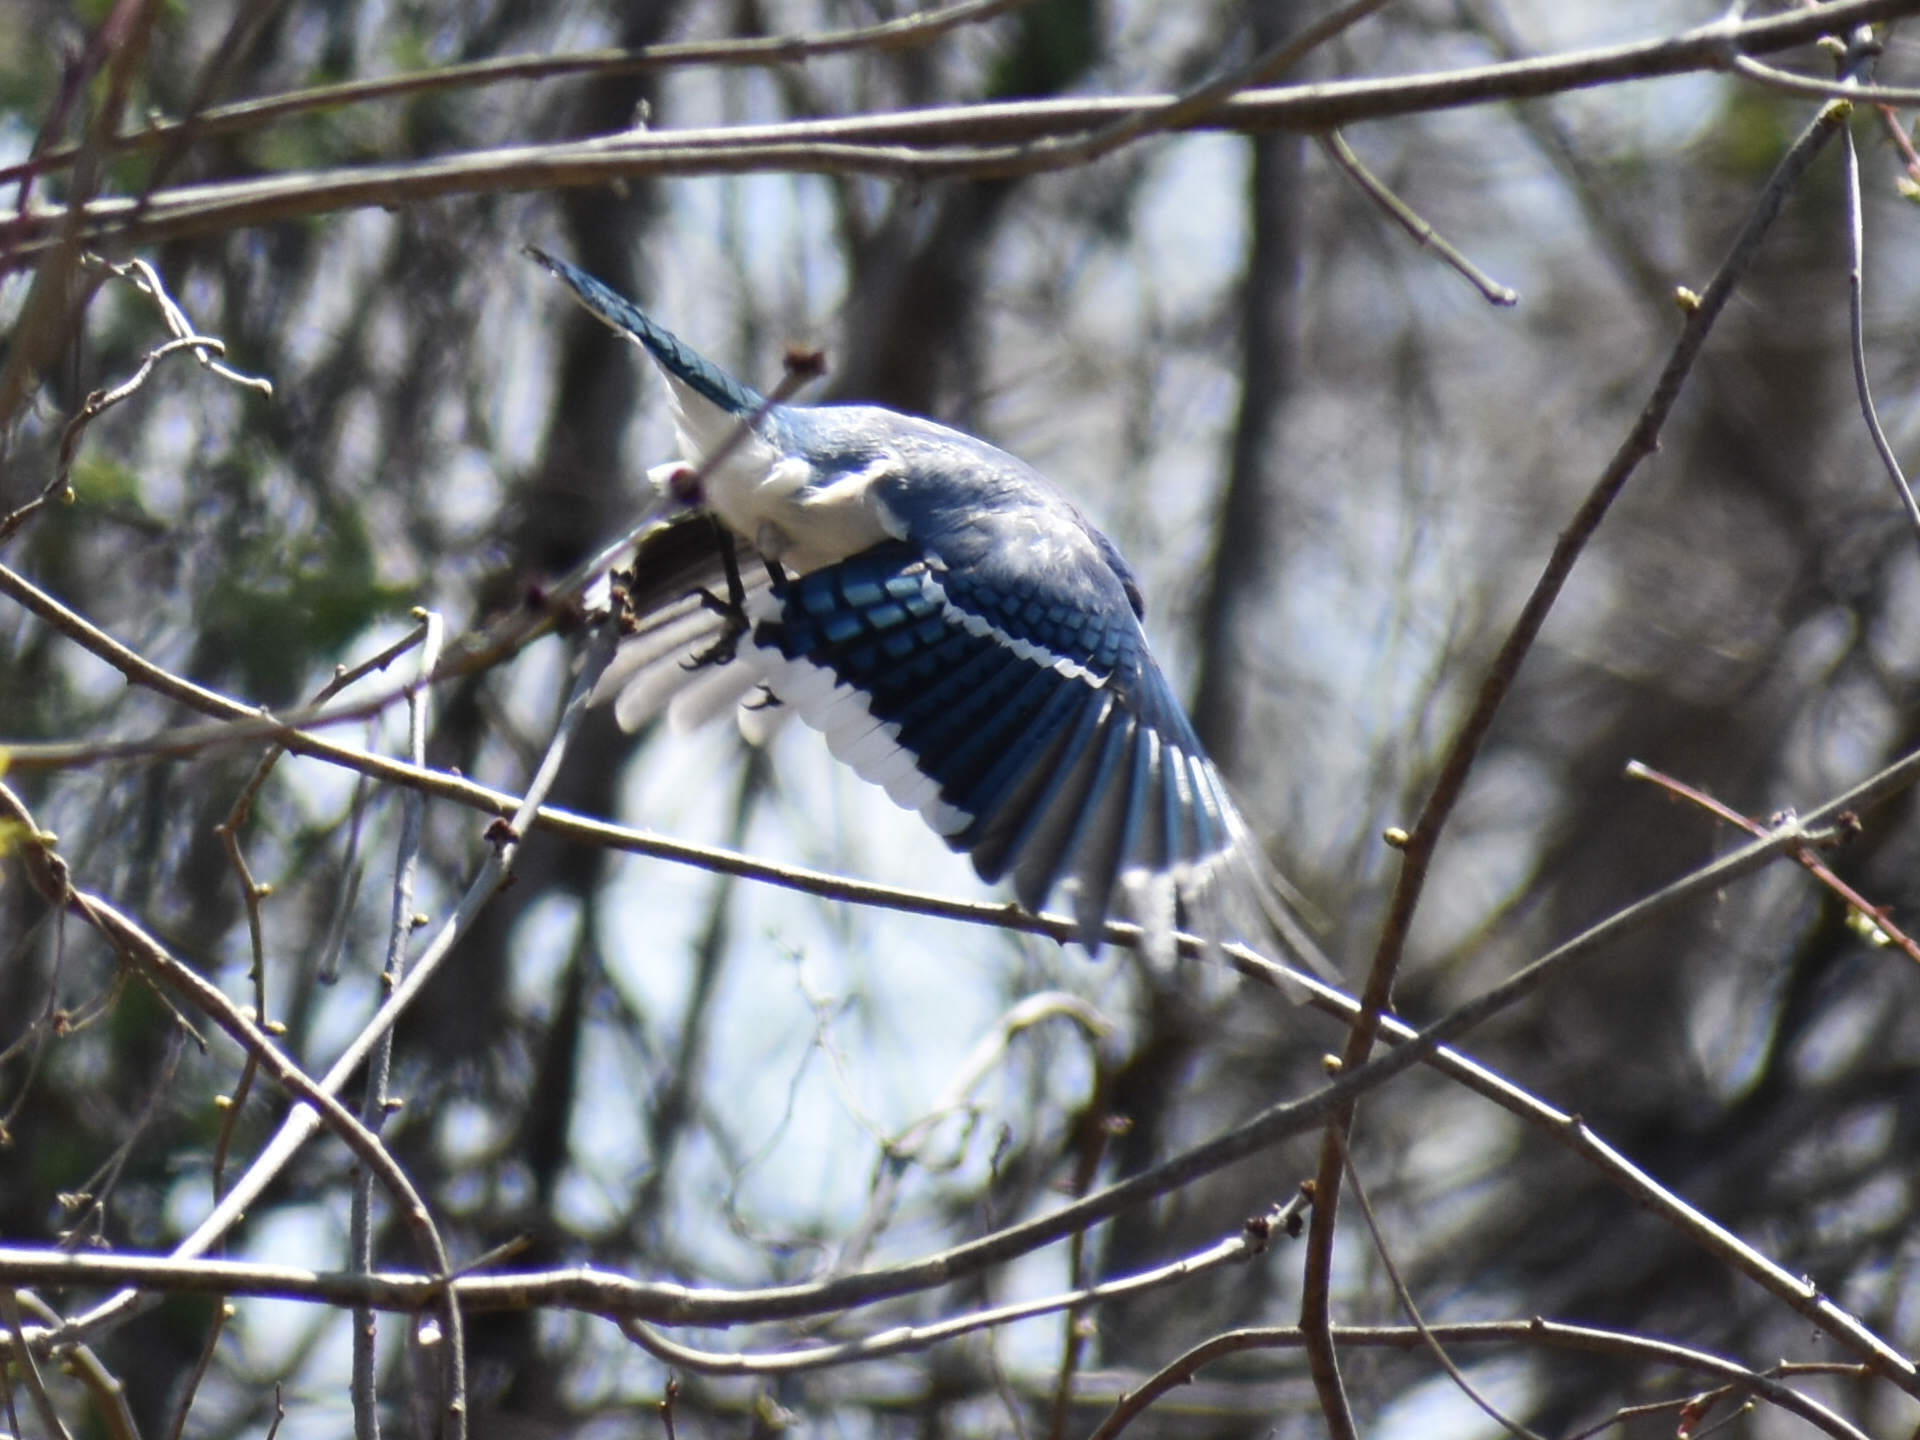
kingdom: Animalia
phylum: Chordata
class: Aves
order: Passeriformes
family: Corvidae
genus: Cyanocitta
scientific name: Cyanocitta cristata
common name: Blue jay
